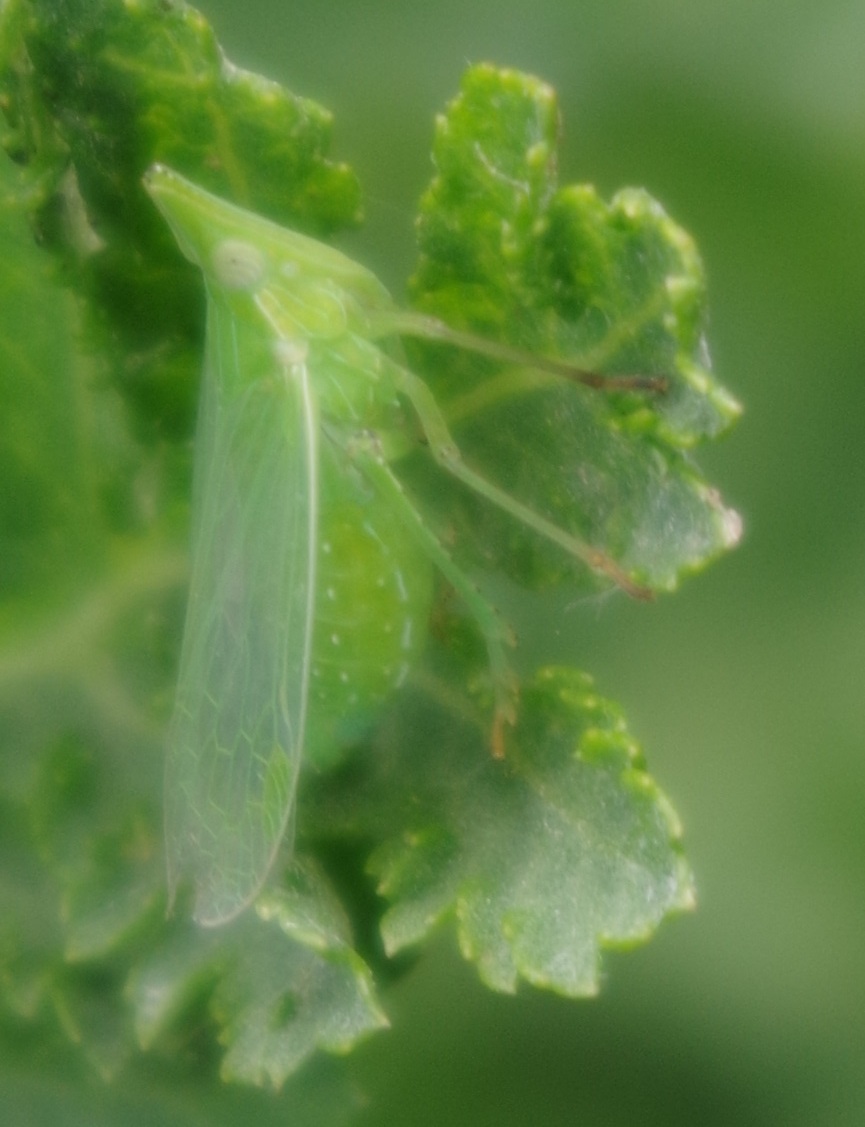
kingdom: Animalia
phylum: Arthropoda
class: Insecta
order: Hemiptera
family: Dictyopharidae
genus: Dictyophara
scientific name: Dictyophara europaea
